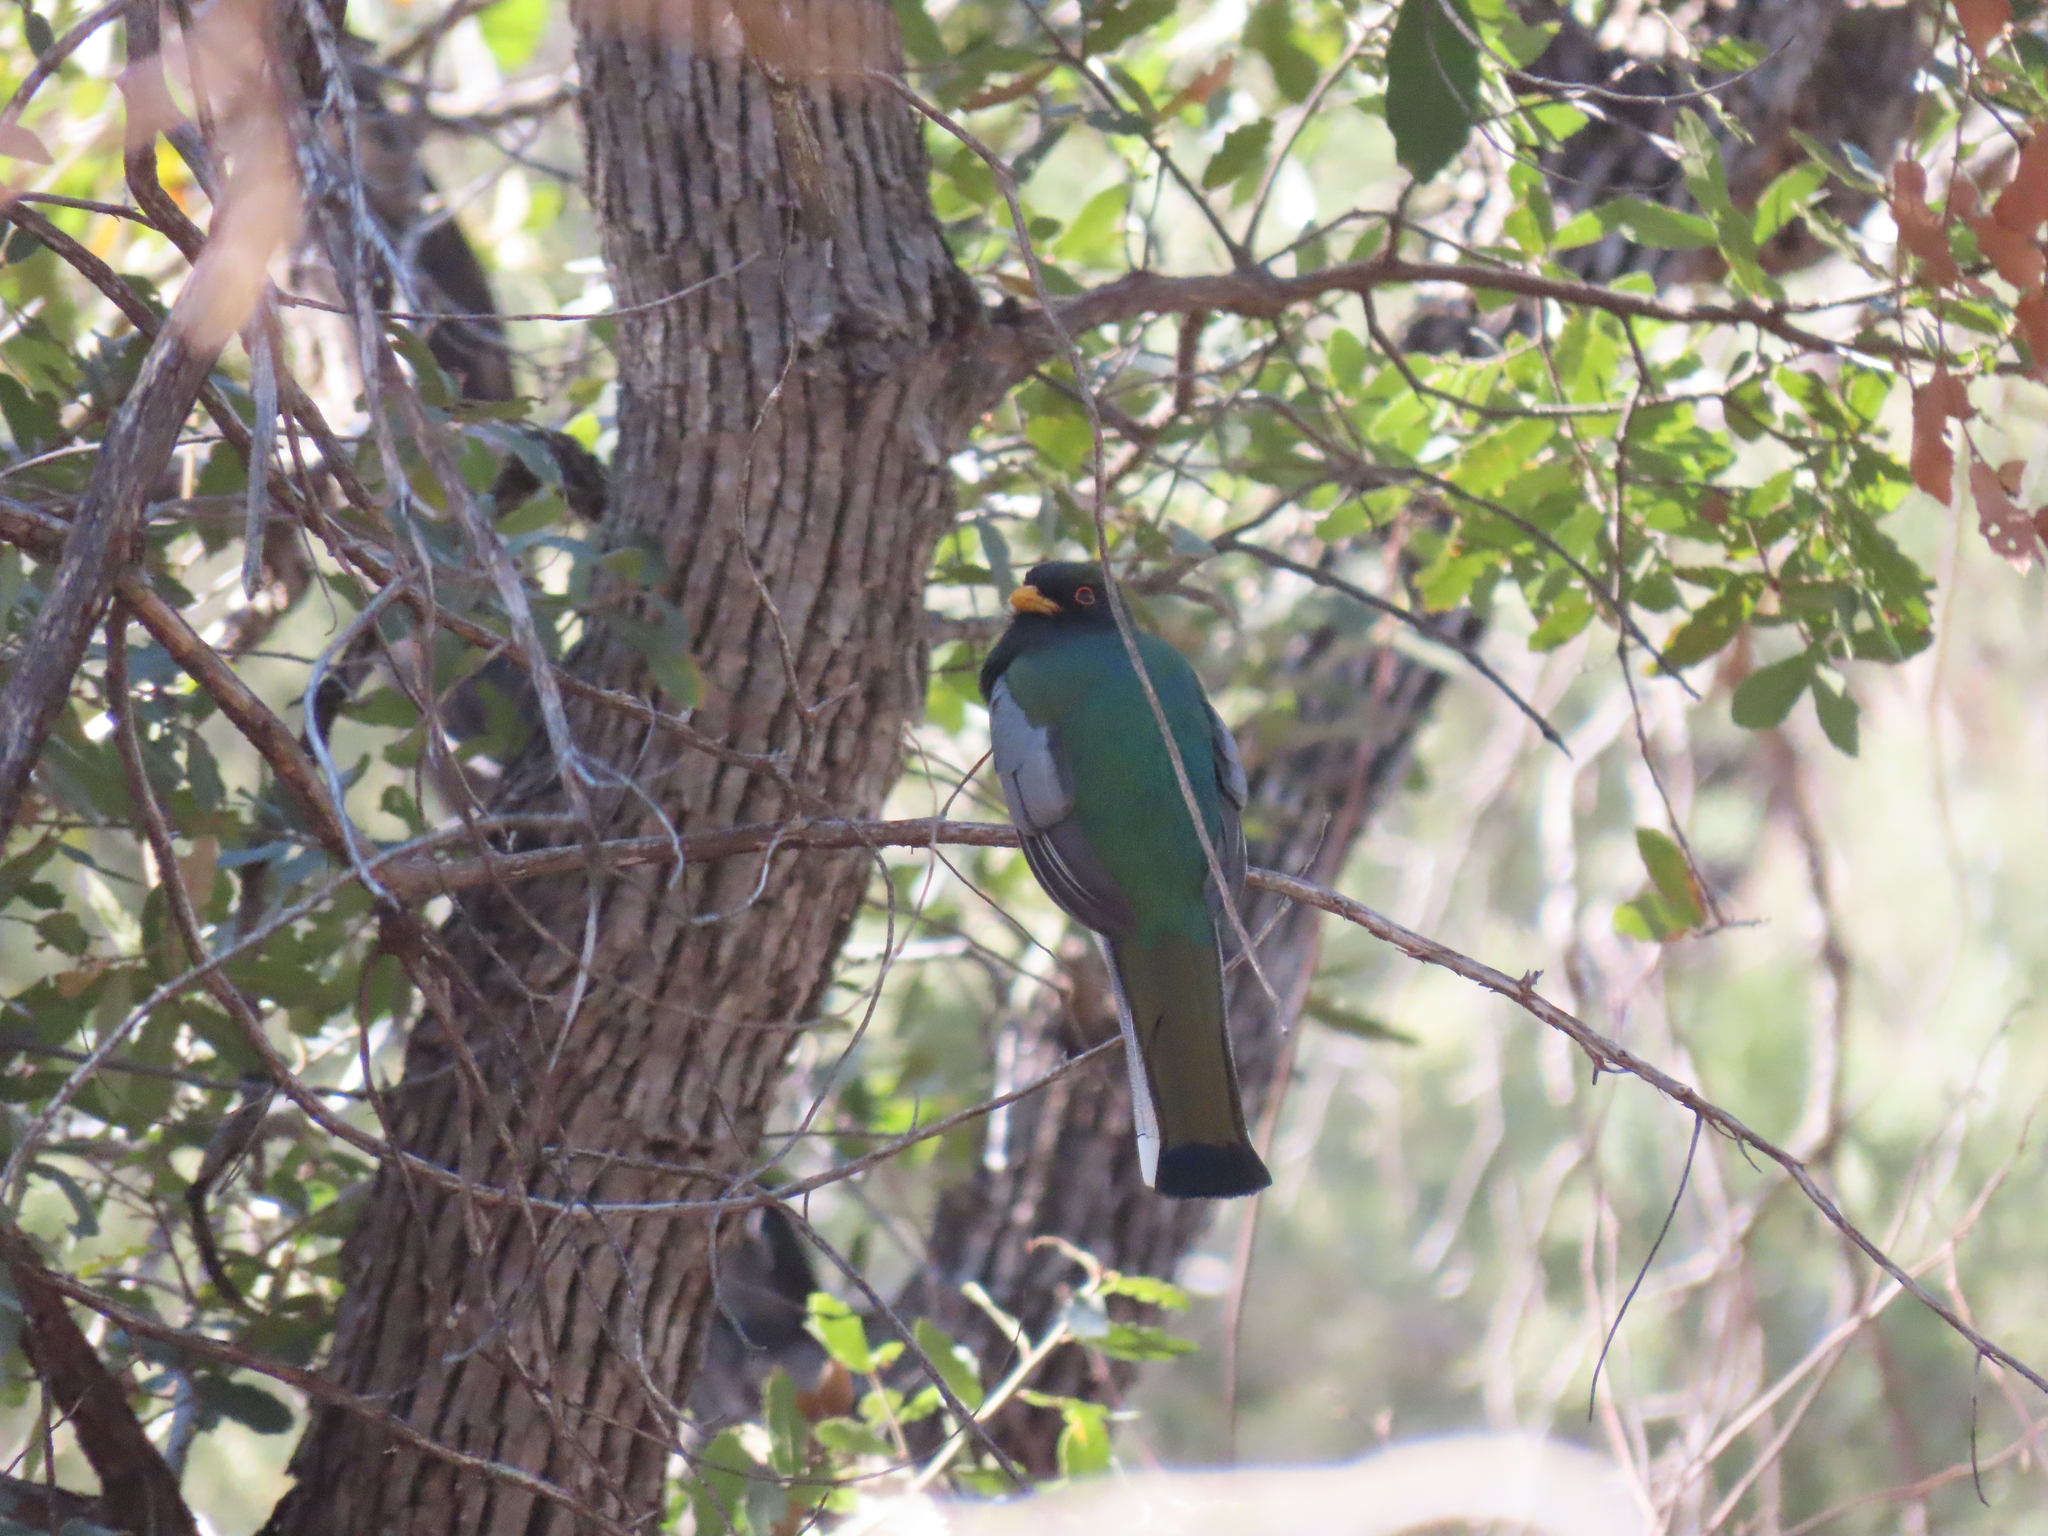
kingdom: Animalia
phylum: Chordata
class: Aves
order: Trogoniformes
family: Trogonidae
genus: Trogon
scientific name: Trogon elegans
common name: Elegant trogon
